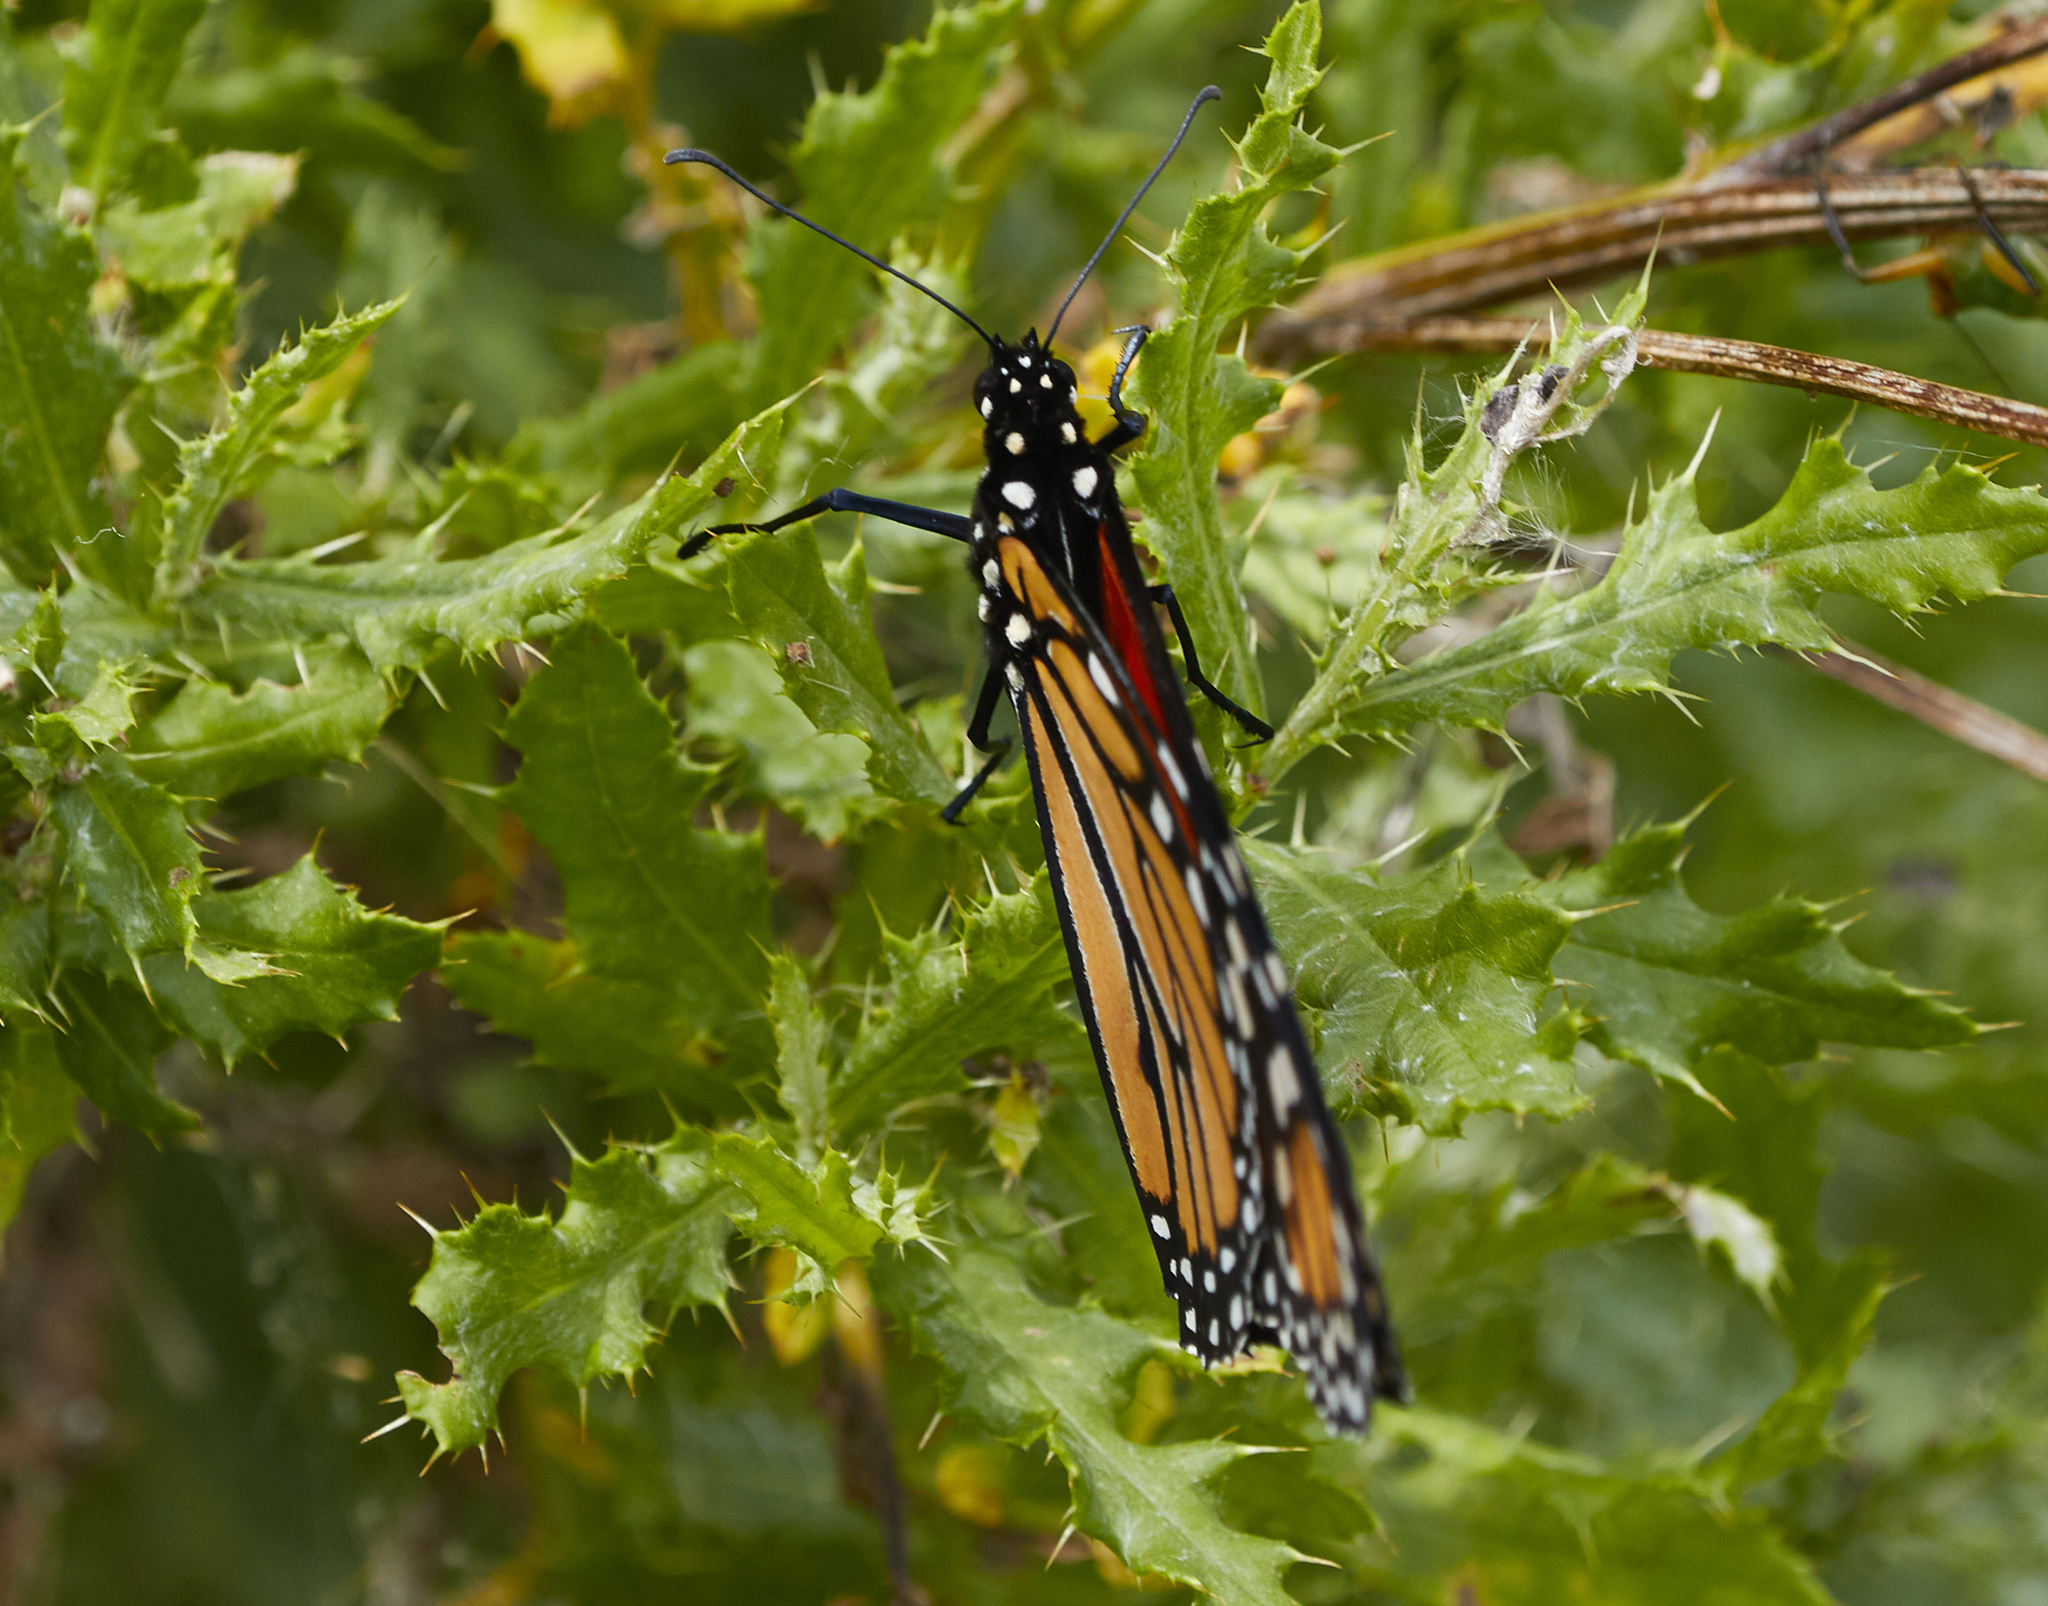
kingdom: Animalia
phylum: Arthropoda
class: Insecta
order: Lepidoptera
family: Nymphalidae
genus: Danaus
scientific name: Danaus plexippus
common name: Monarch
